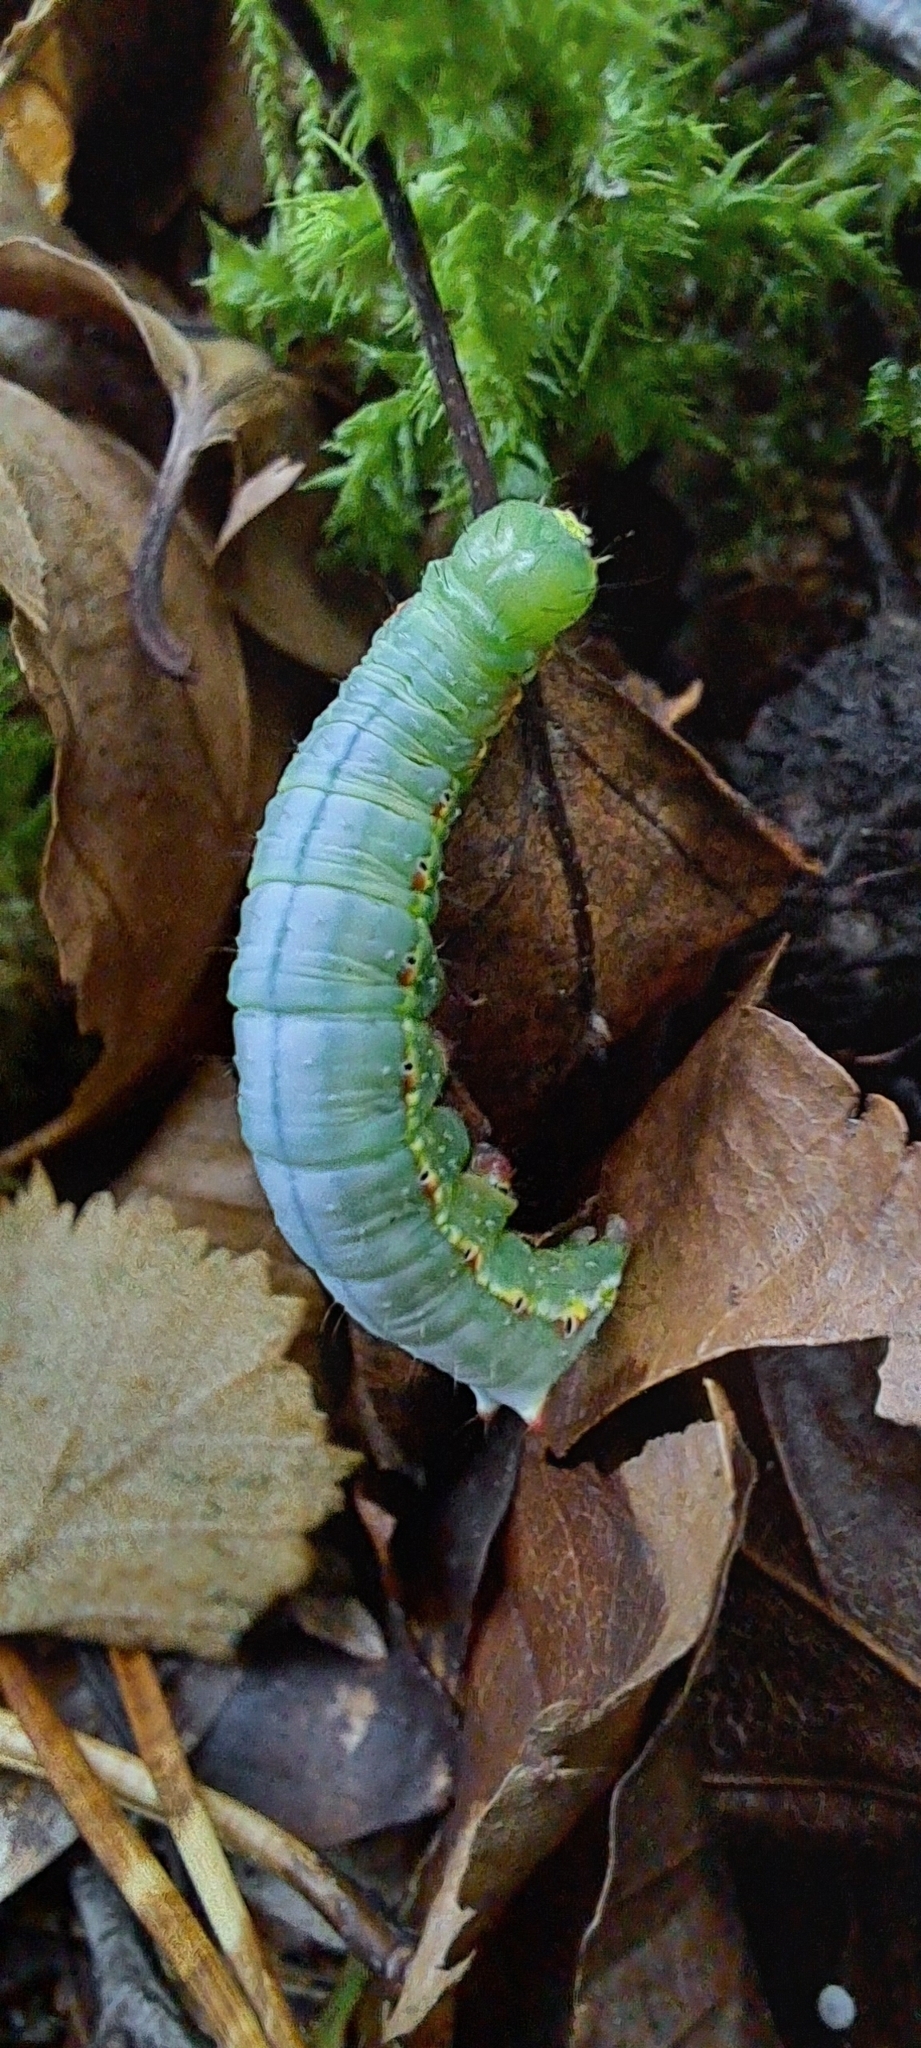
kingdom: Animalia
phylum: Arthropoda
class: Insecta
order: Lepidoptera
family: Notodontidae
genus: Ptilodon
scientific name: Ptilodon capucina
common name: Coxcomb prominent
